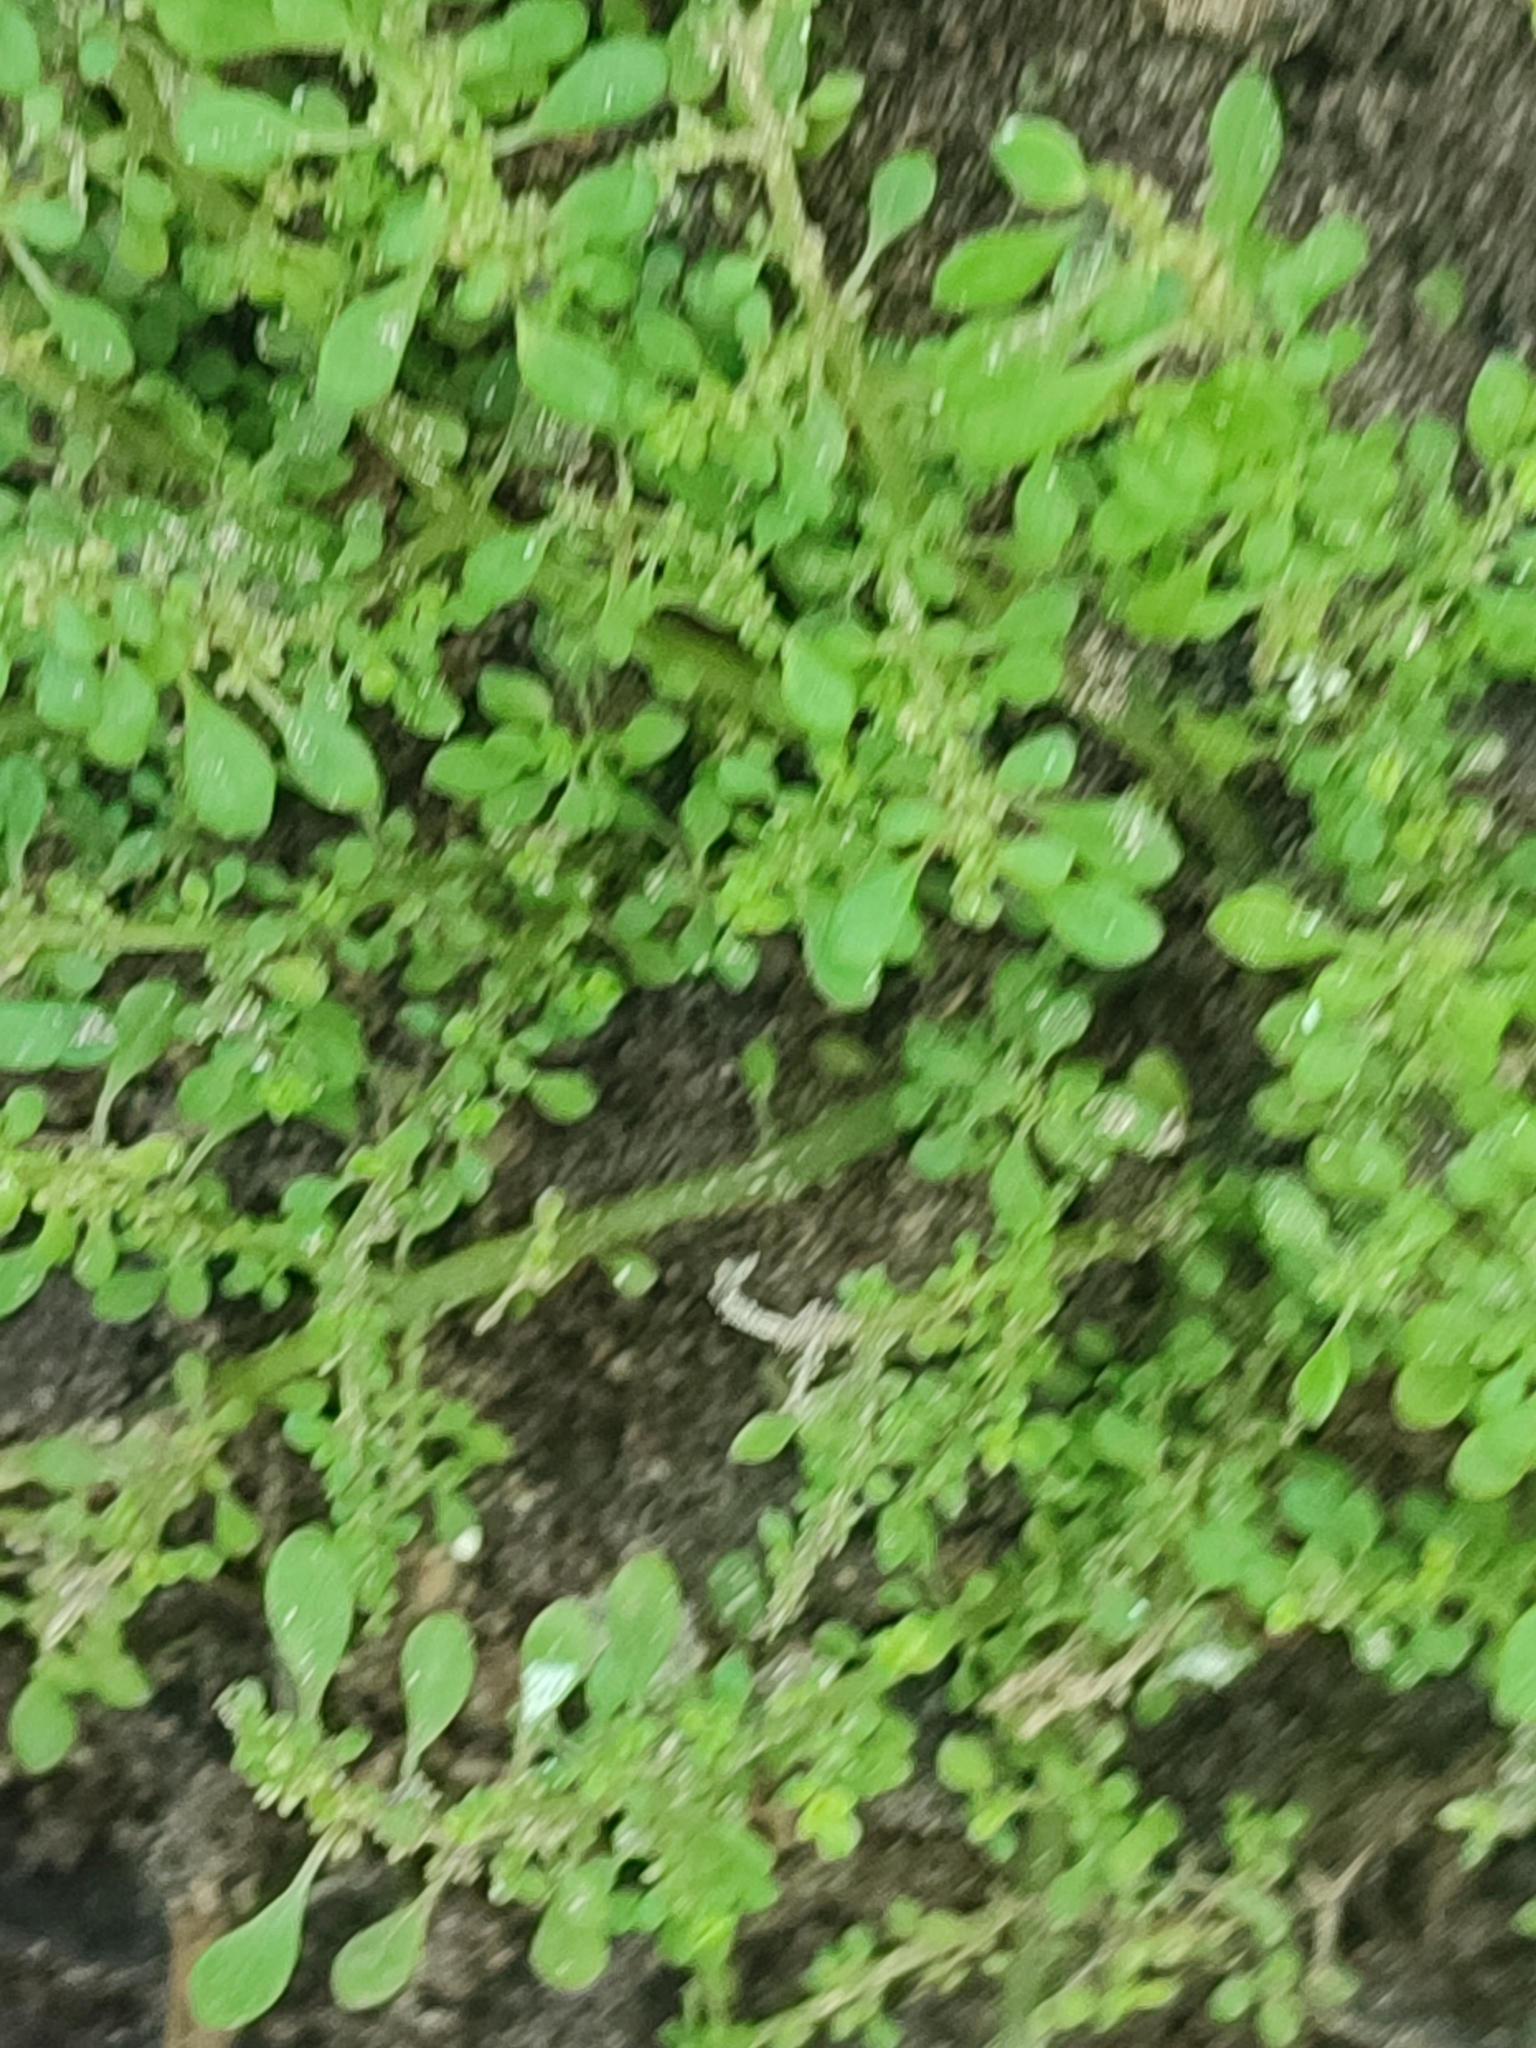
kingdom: Plantae
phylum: Tracheophyta
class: Magnoliopsida
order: Rosales
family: Urticaceae
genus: Pilea
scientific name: Pilea microphylla
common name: Artillery-plant
